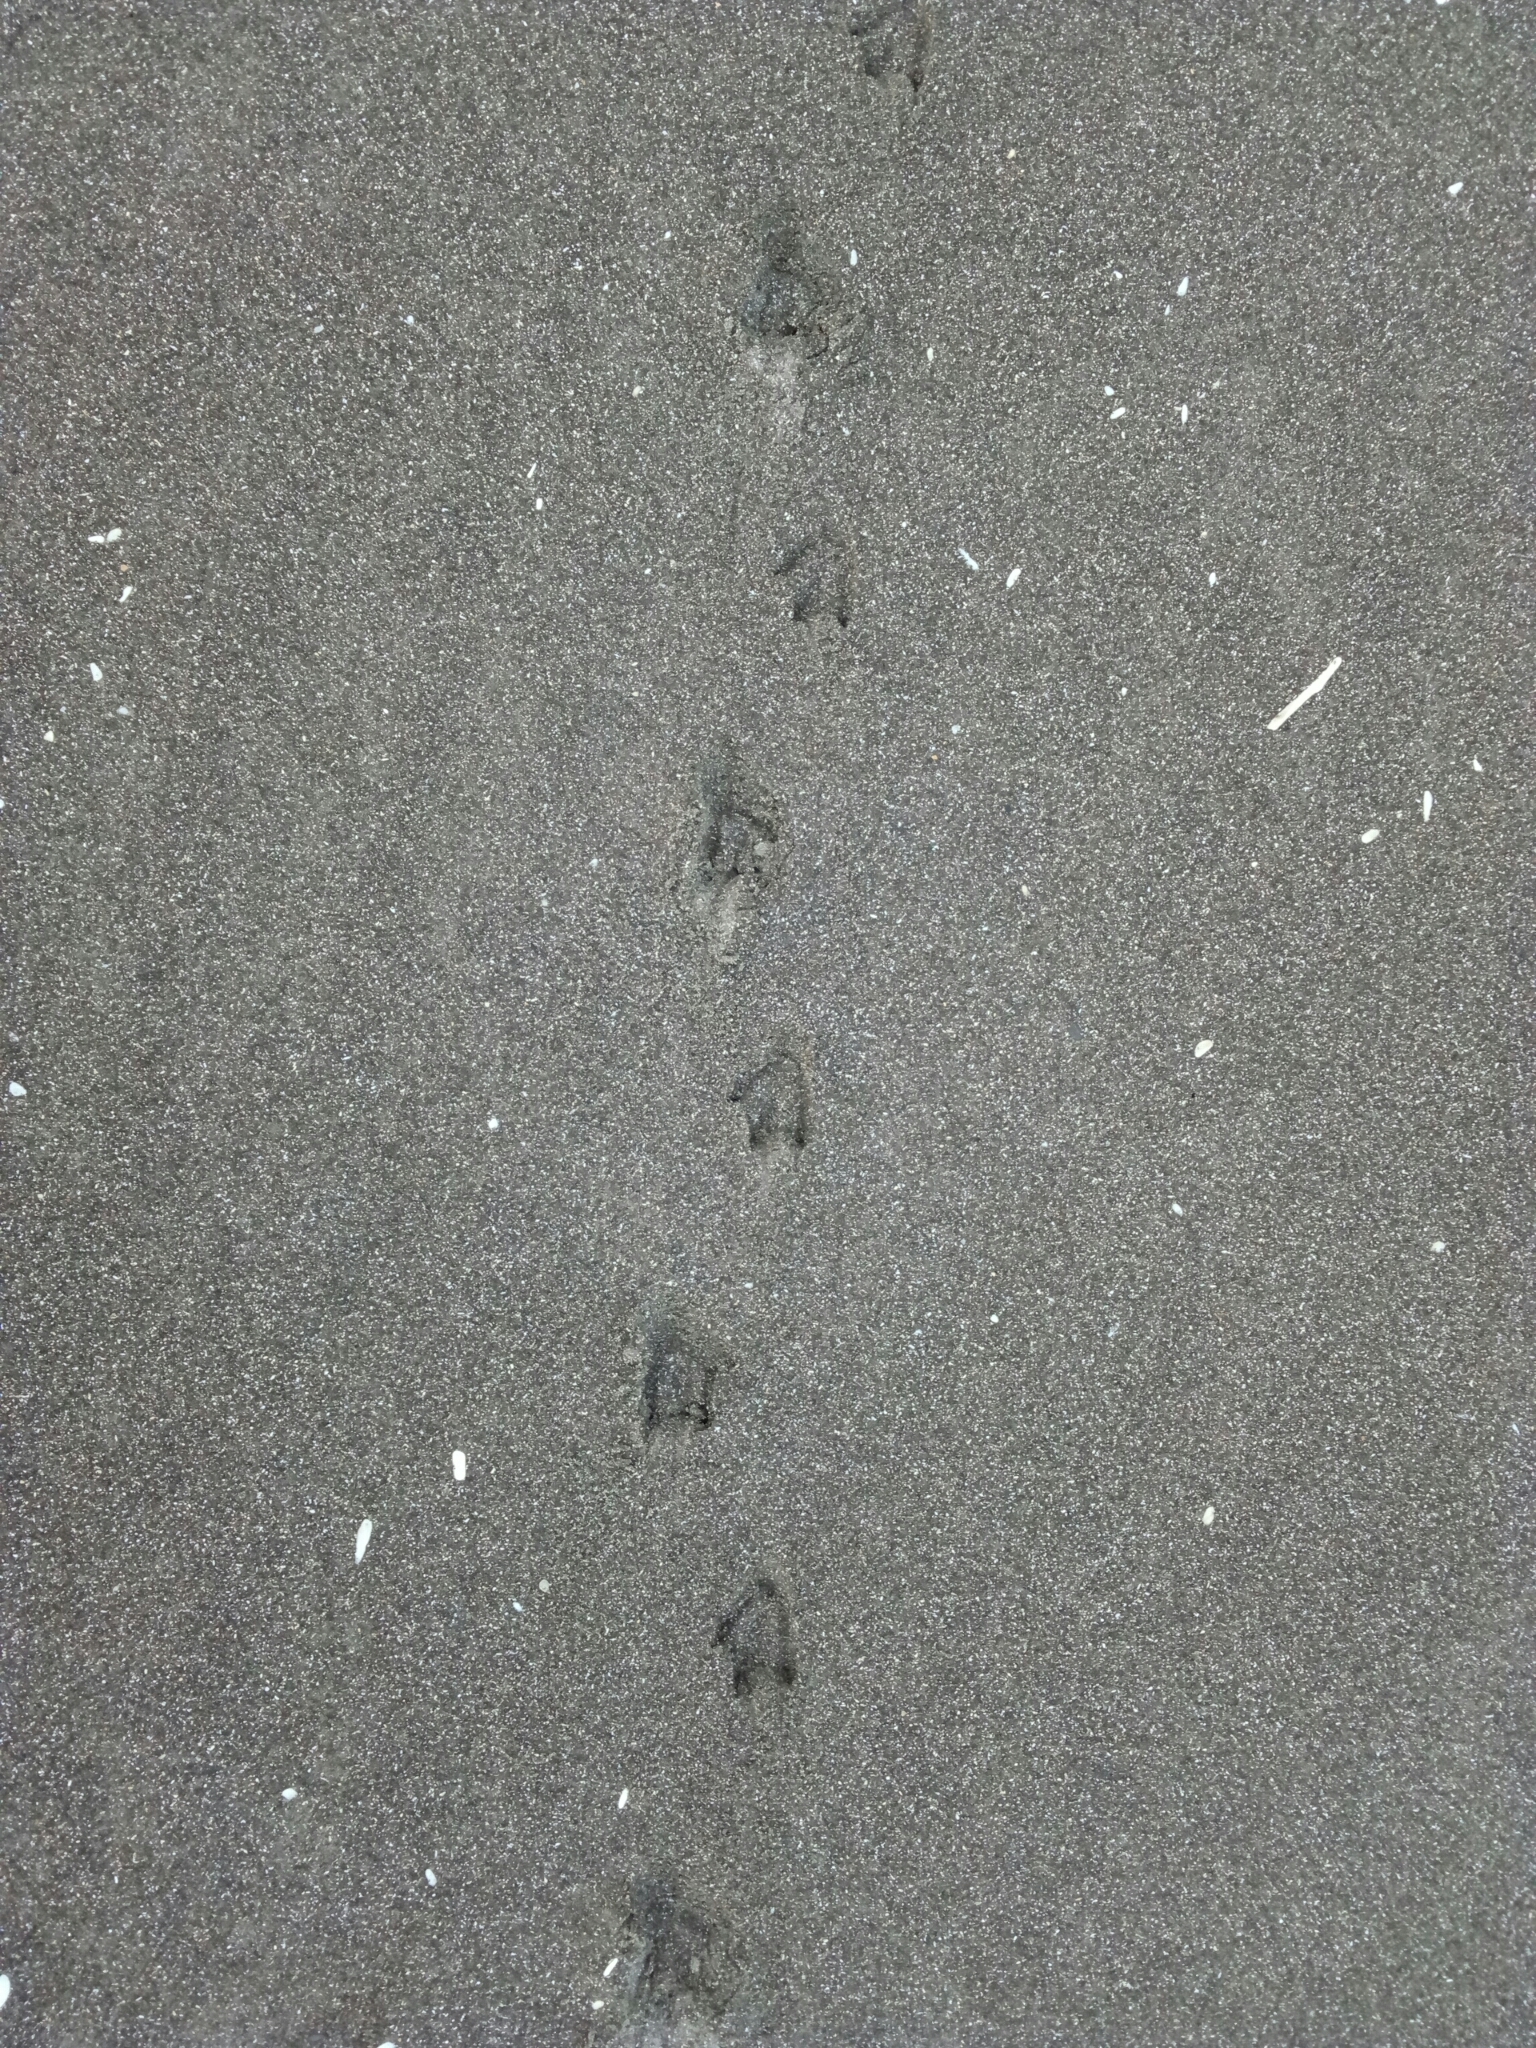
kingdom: Animalia
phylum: Chordata
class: Aves
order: Sphenisciformes
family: Spheniscidae
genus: Eudyptula
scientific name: Eudyptula minor
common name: Little penguin
